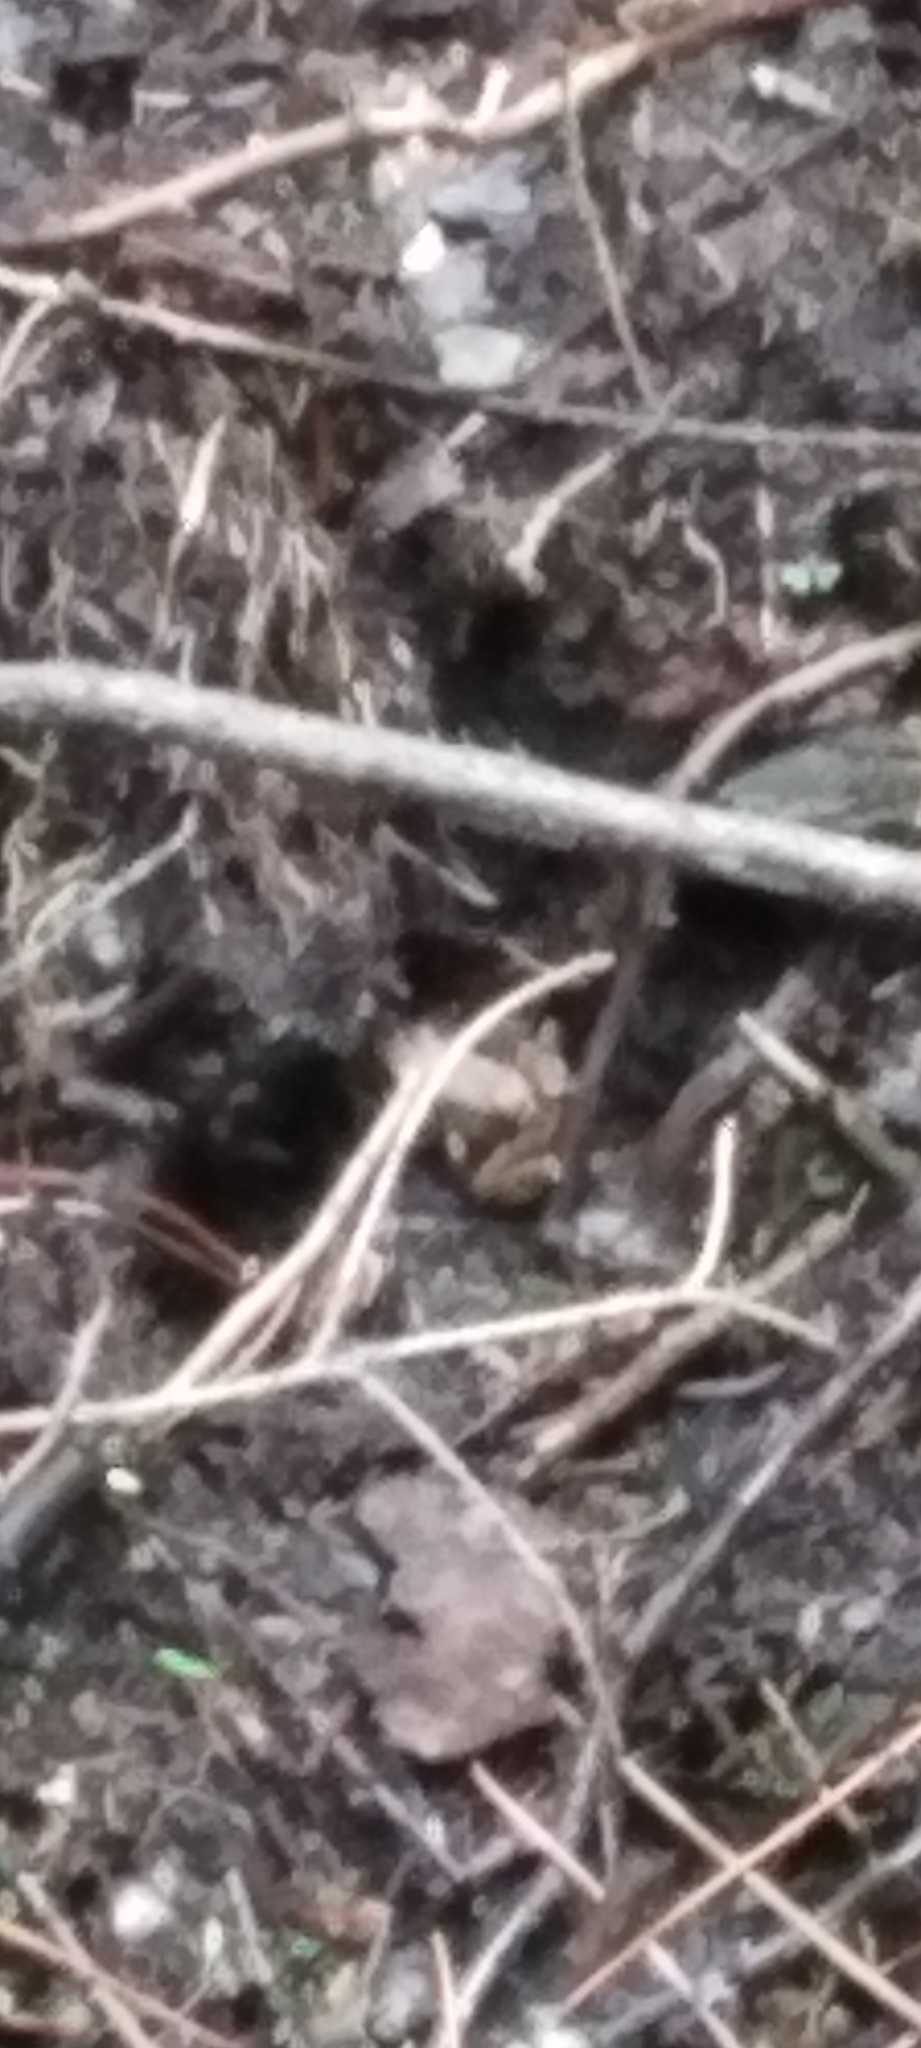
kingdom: Animalia
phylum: Chordata
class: Amphibia
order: Anura
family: Ranidae
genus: Lithobates
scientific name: Lithobates sylvaticus
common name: Wood frog
